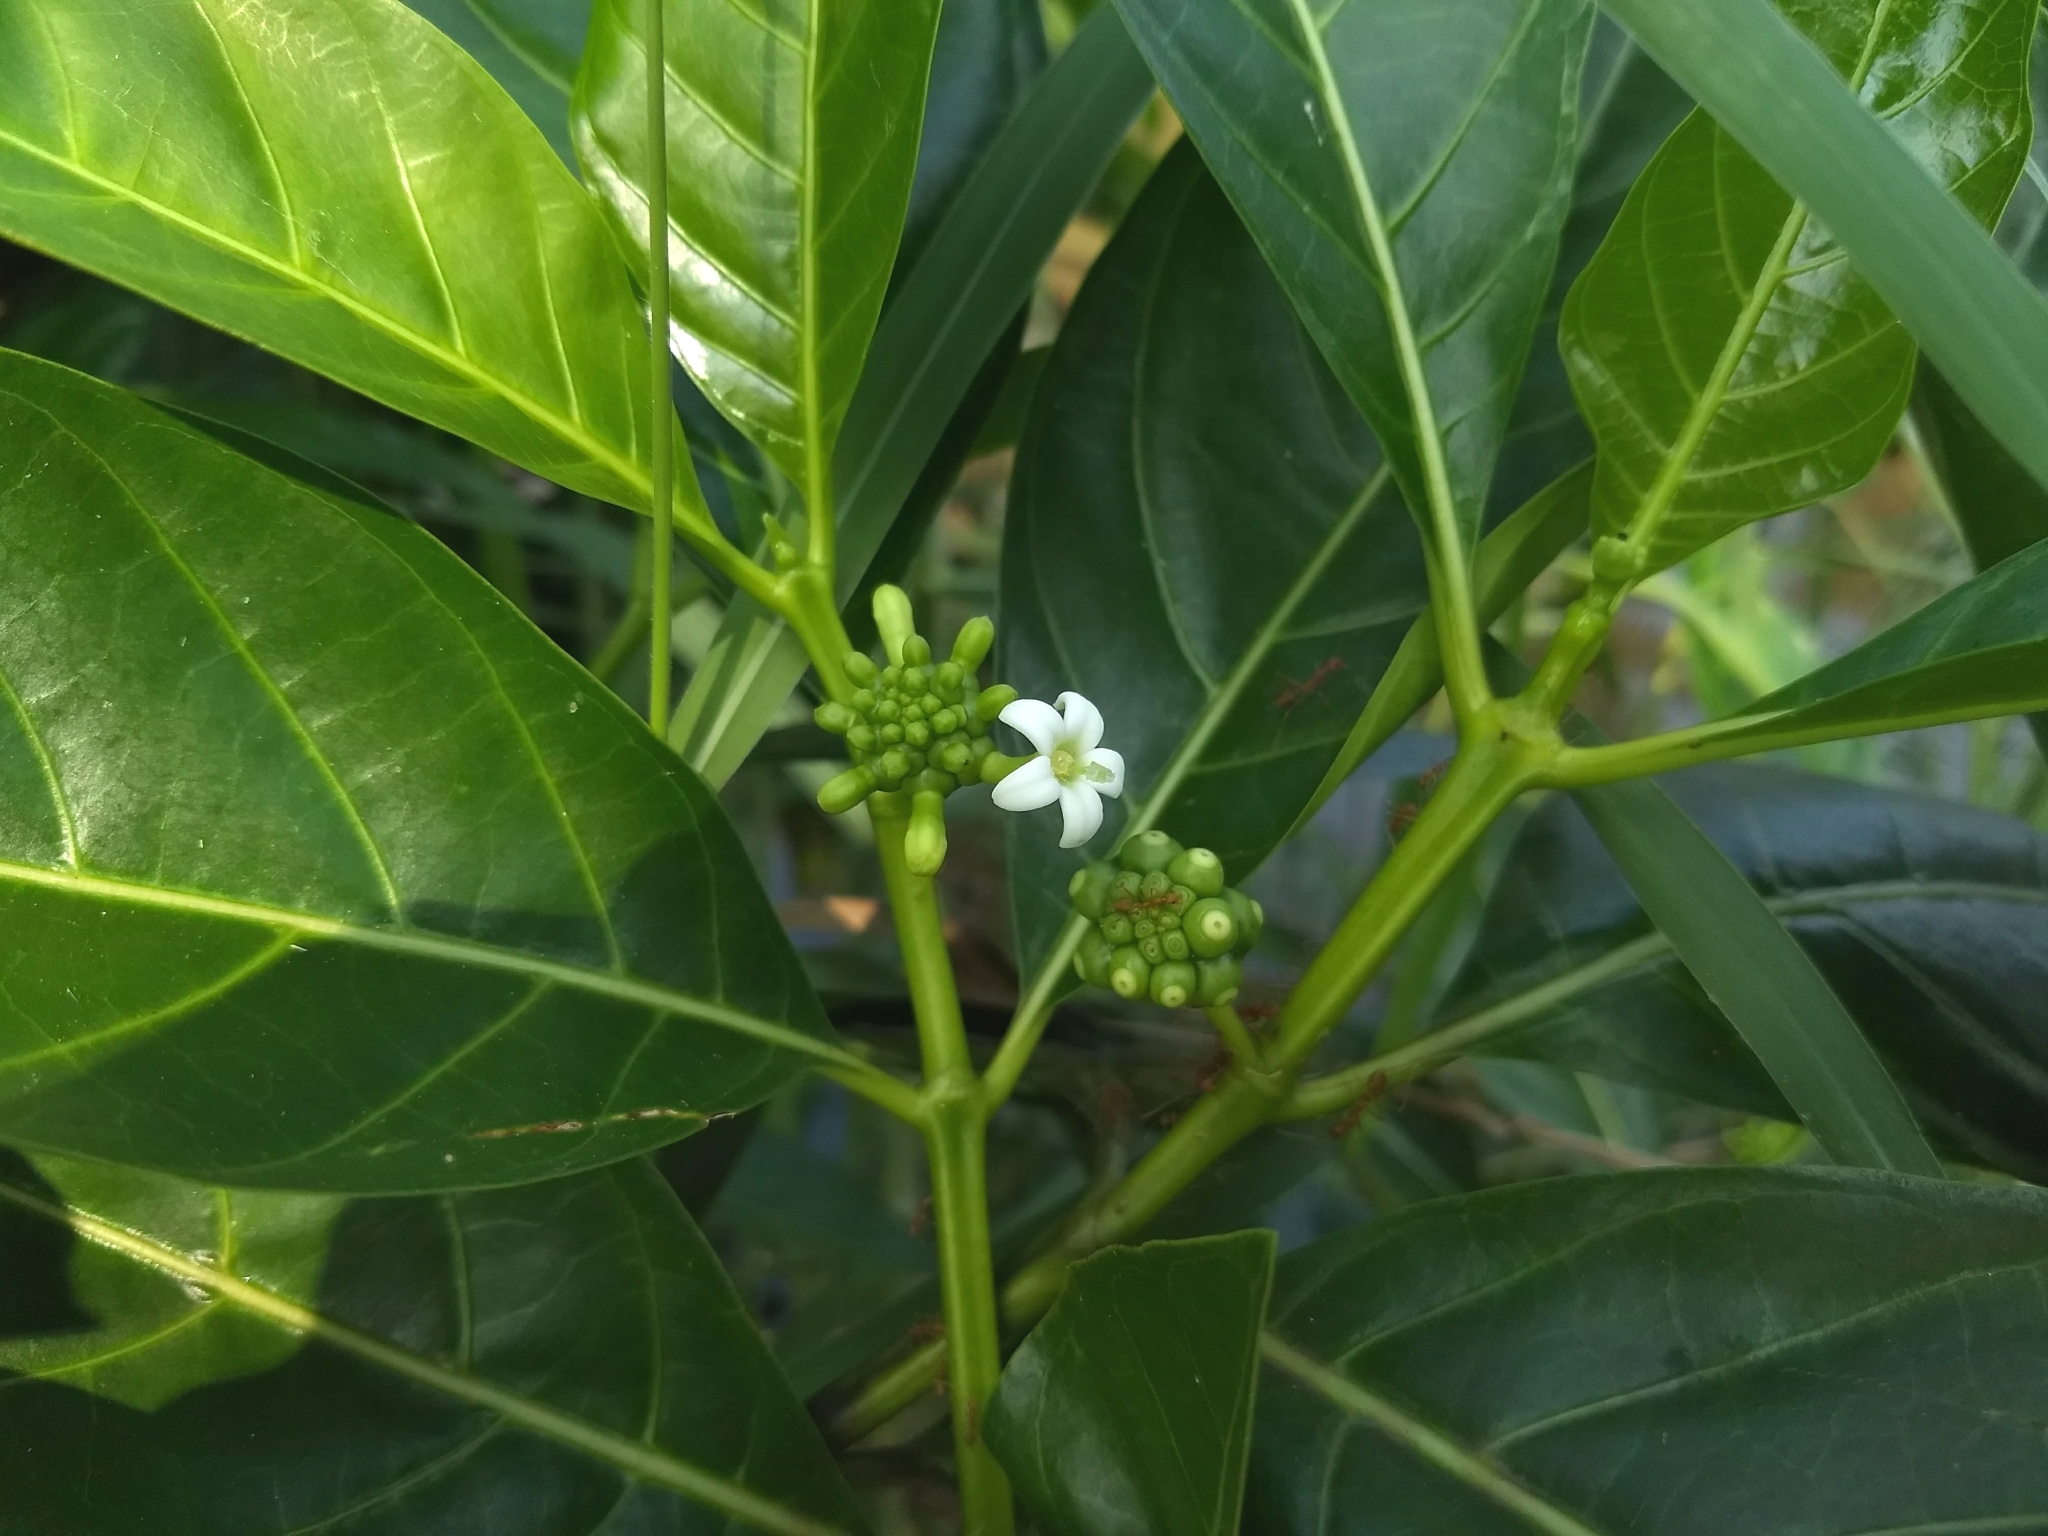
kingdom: Plantae
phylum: Tracheophyta
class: Magnoliopsida
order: Gentianales
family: Rubiaceae
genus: Morinda
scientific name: Morinda citrifolia
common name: Indian-mulberry
